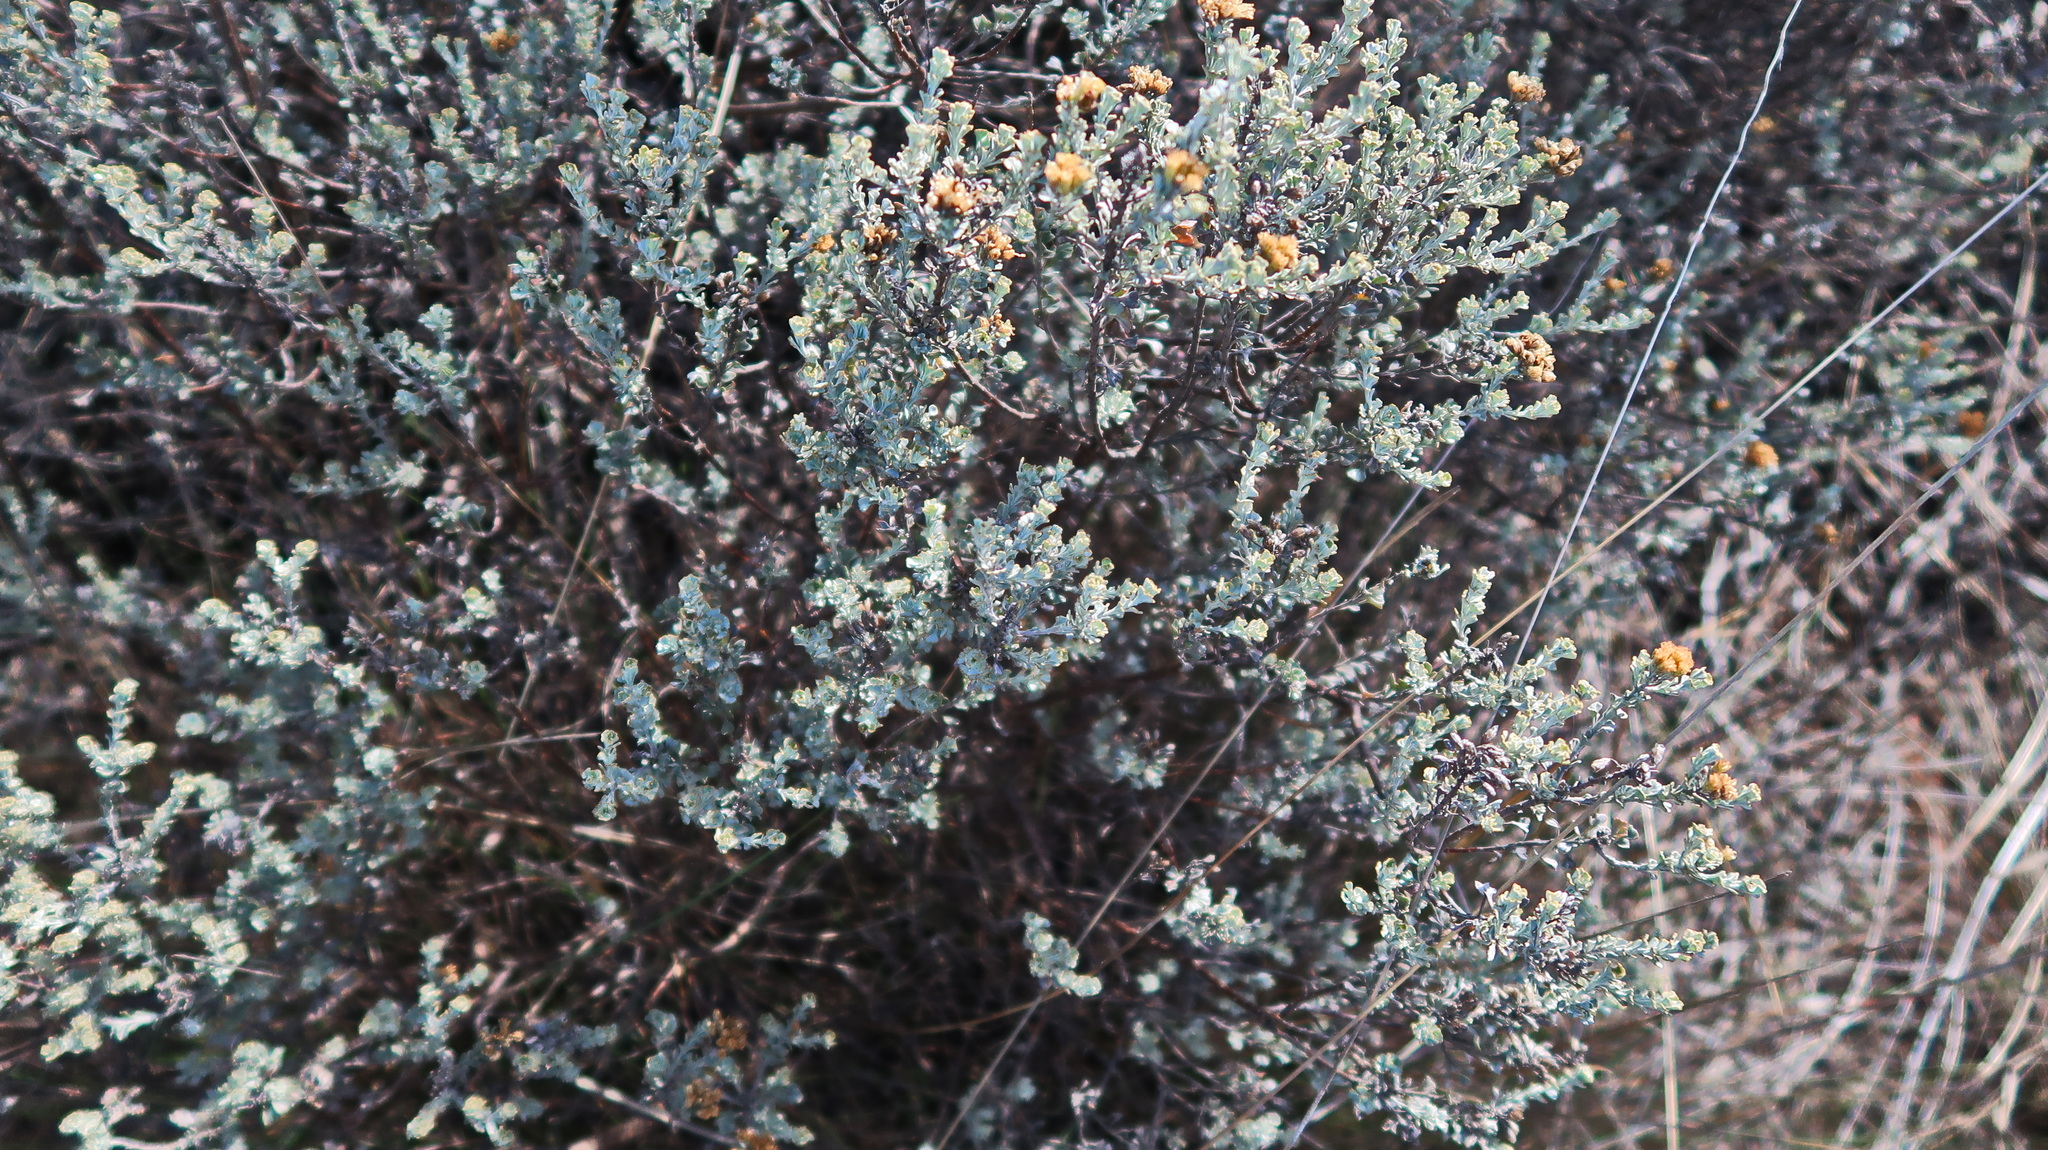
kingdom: Plantae
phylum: Tracheophyta
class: Magnoliopsida
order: Asterales
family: Asteraceae
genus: Pteronia
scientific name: Pteronia incana
